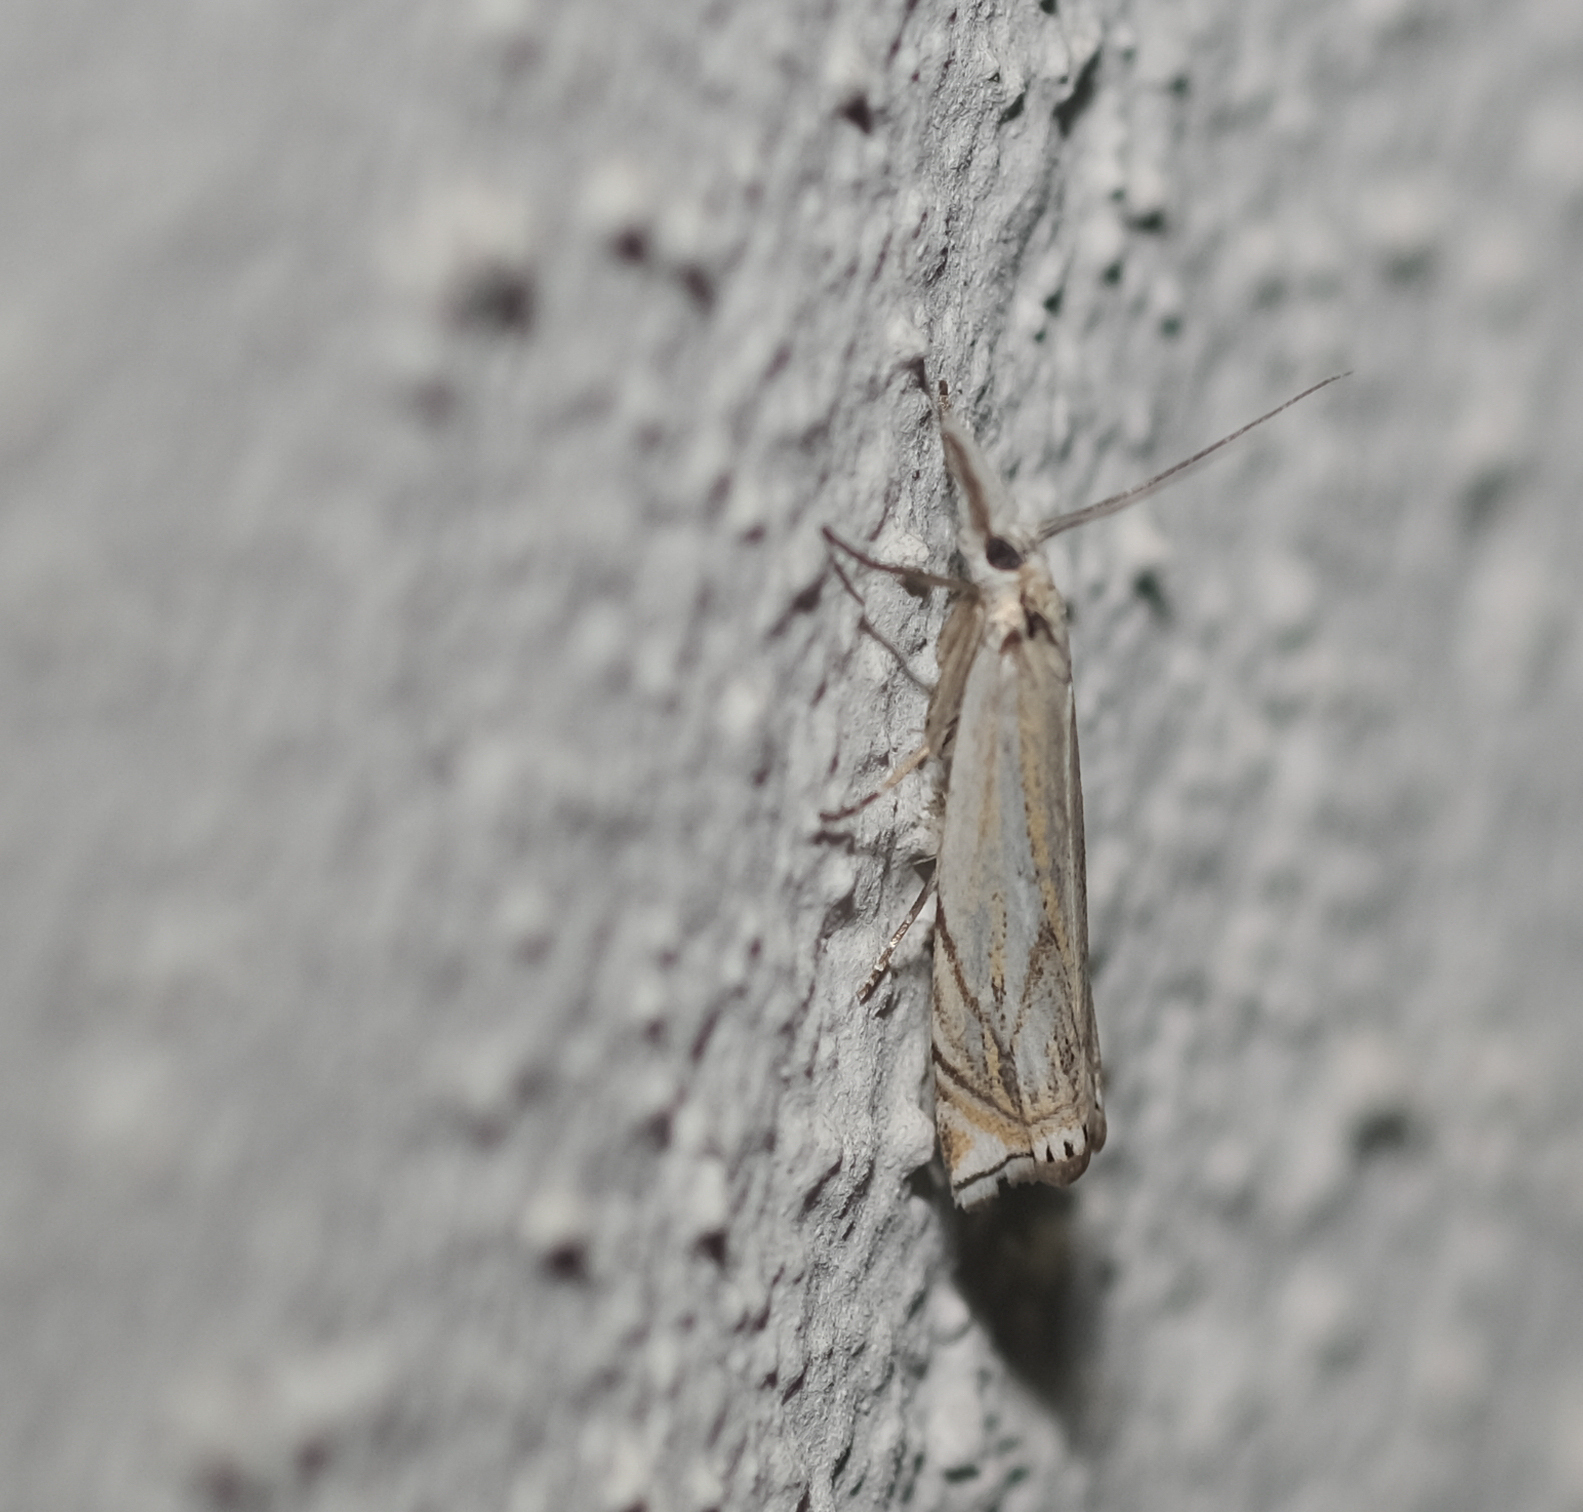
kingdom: Animalia
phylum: Arthropoda
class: Insecta
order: Lepidoptera
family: Crambidae
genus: Crambus
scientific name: Crambus nemorella
